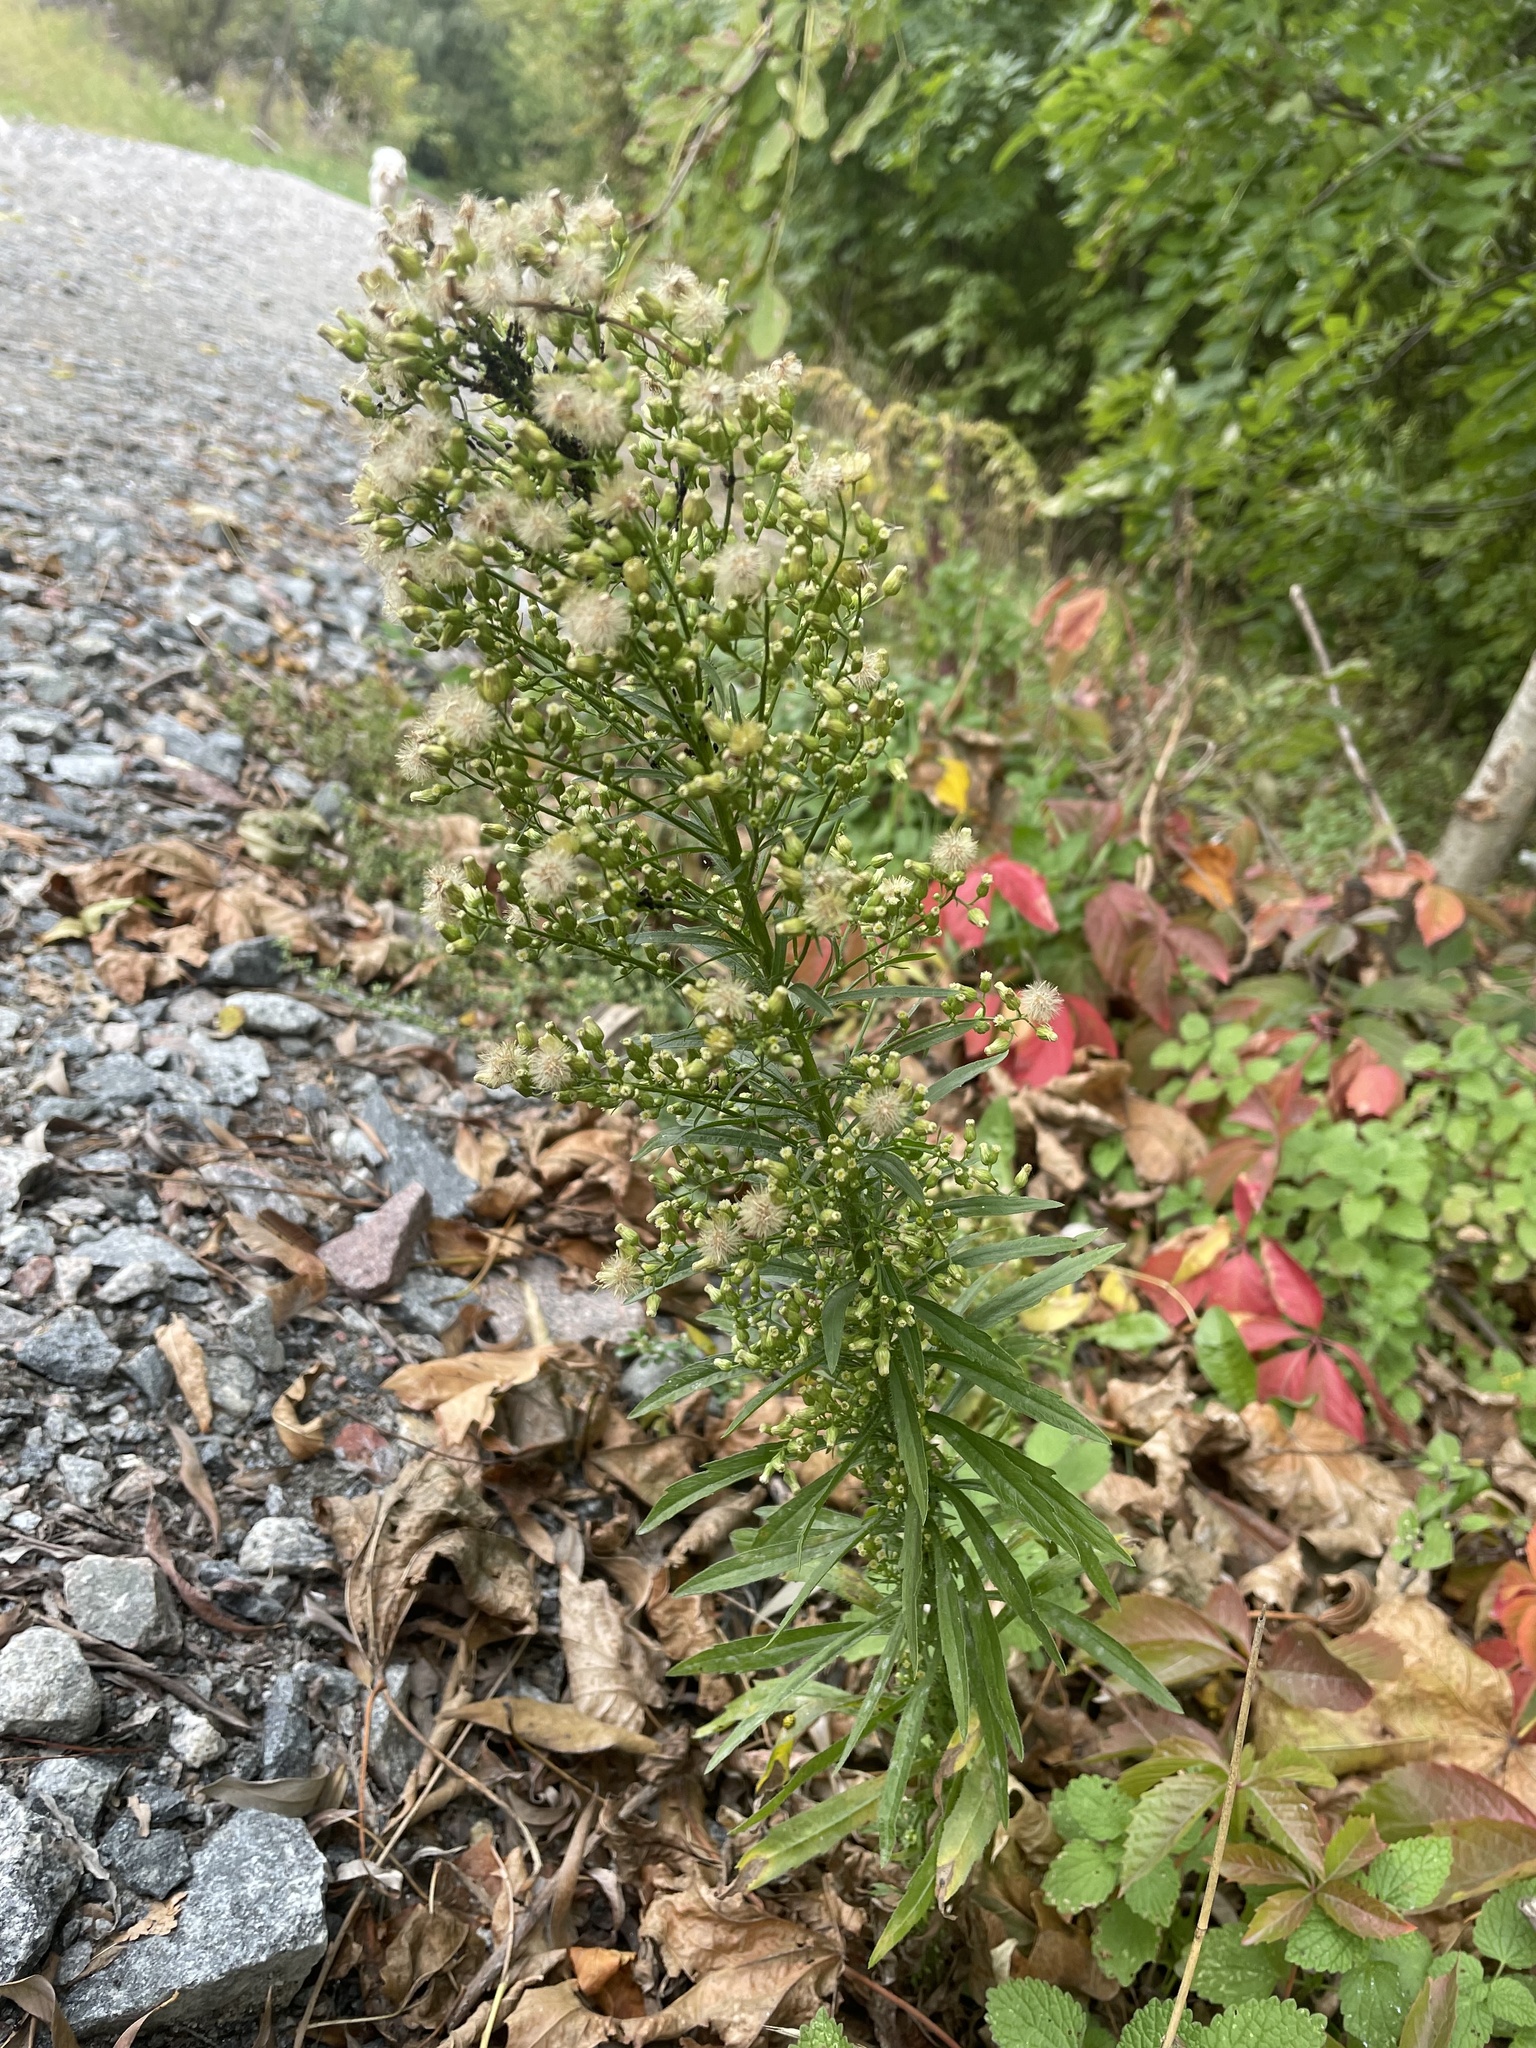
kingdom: Plantae
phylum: Tracheophyta
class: Magnoliopsida
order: Asterales
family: Asteraceae
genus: Erigeron
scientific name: Erigeron canadensis
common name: Canadian fleabane
